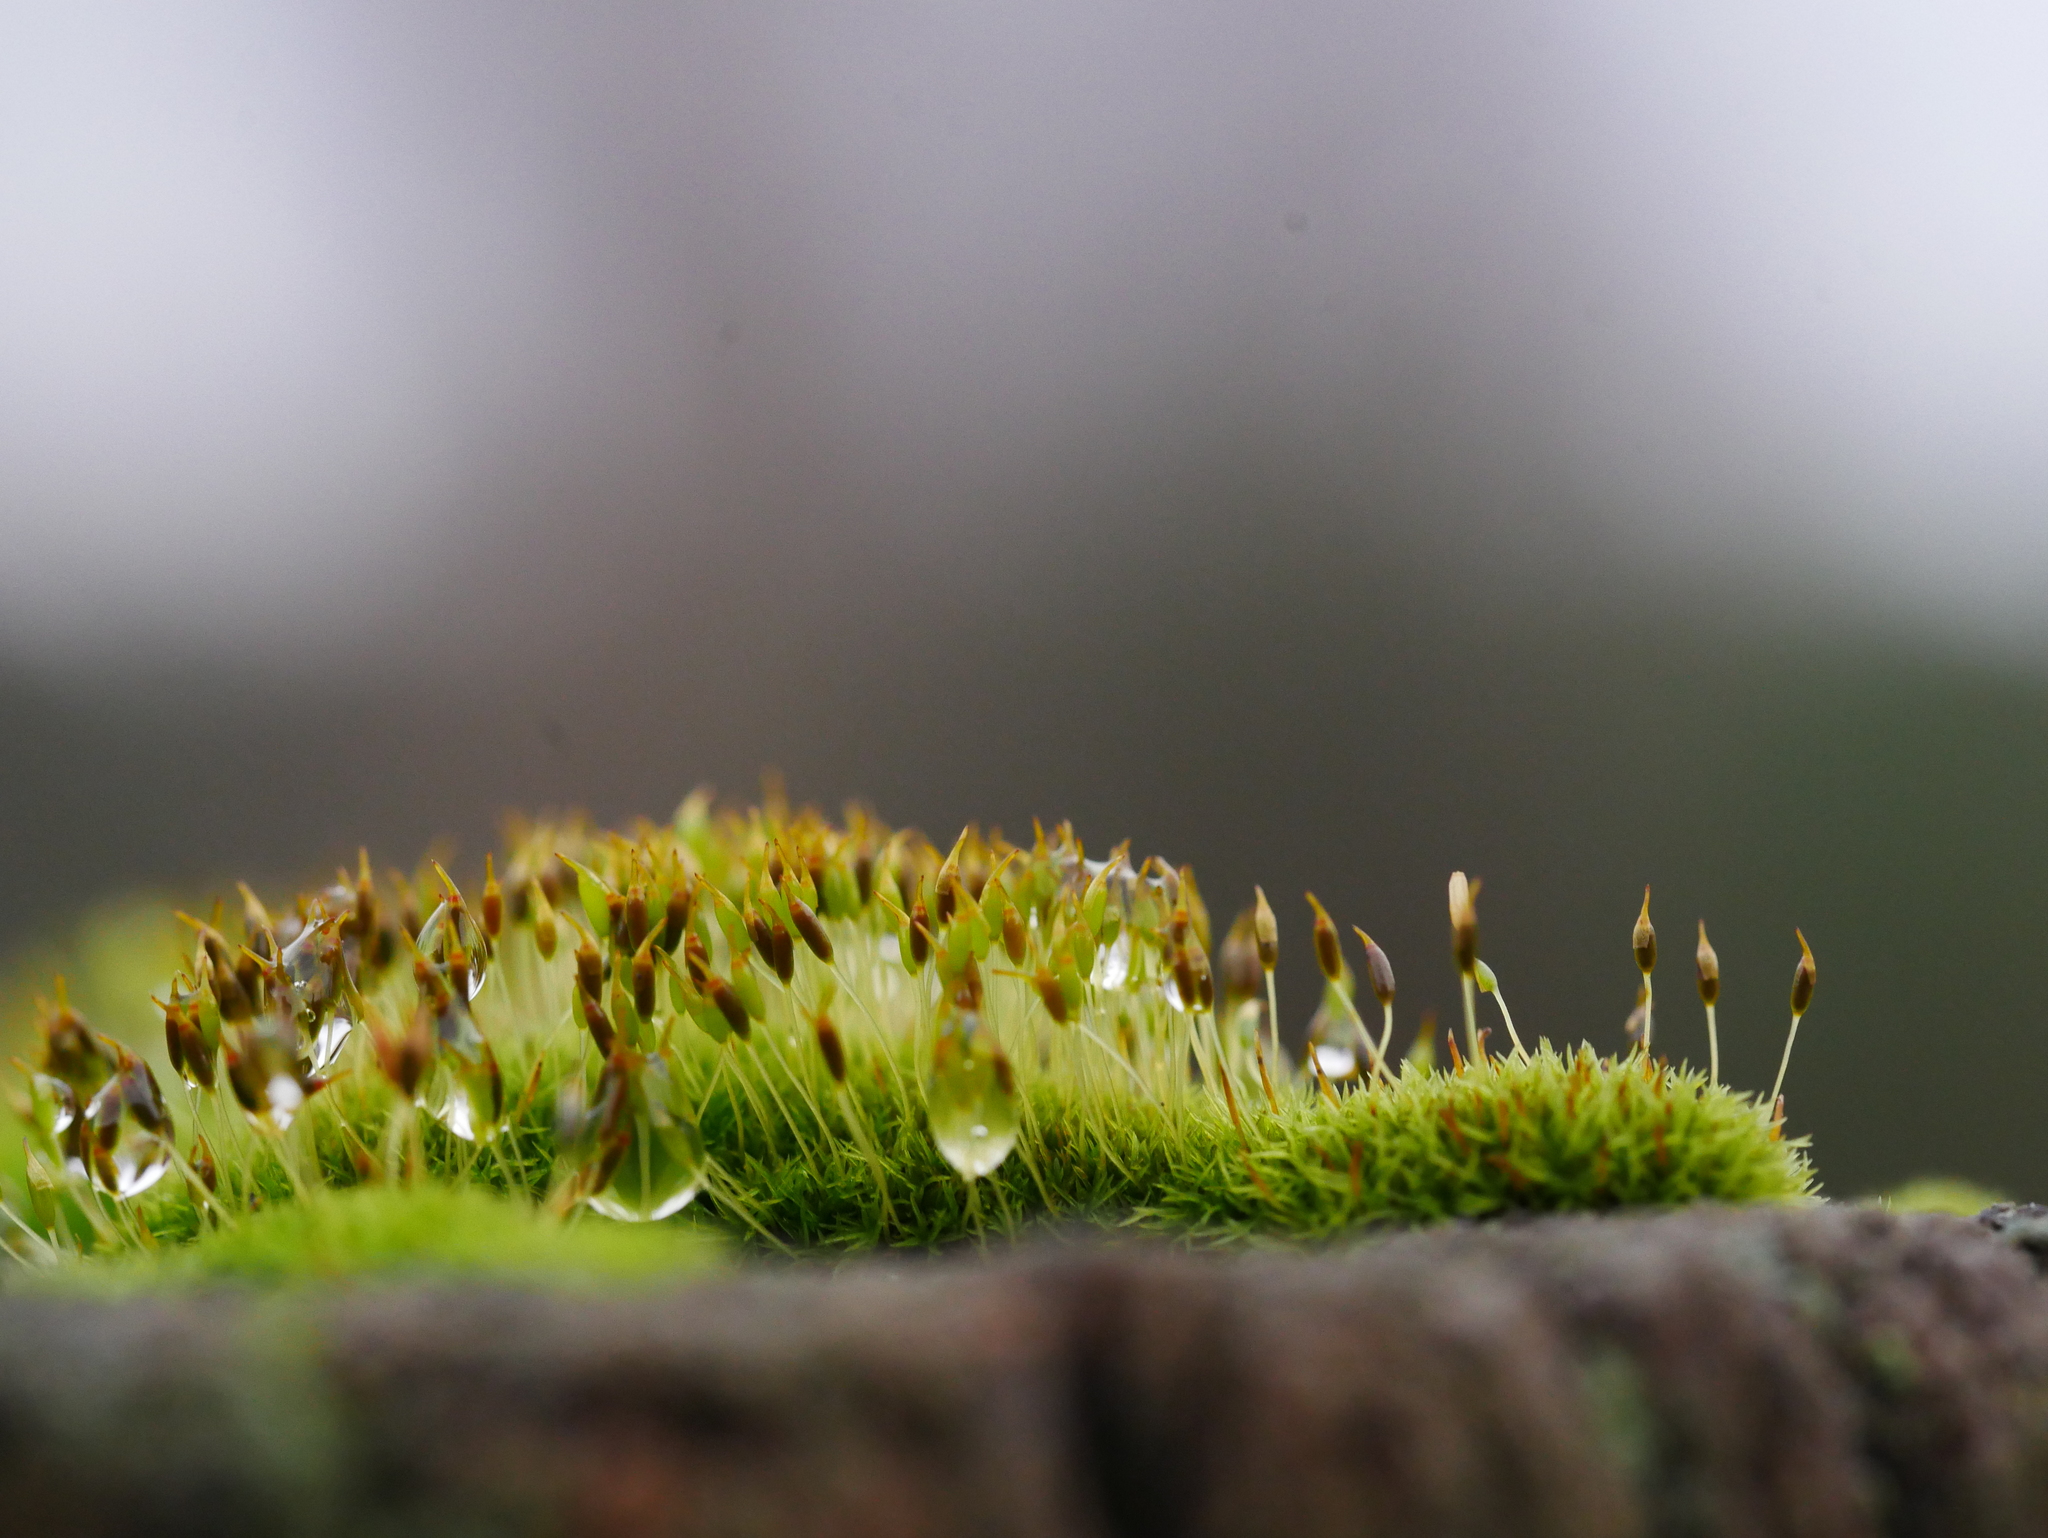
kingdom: Plantae
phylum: Bryophyta
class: Bryopsida
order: Dicranales
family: Rhabdoweisiaceae
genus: Dicranoweisia
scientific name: Dicranoweisia cirrata
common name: Common pincushion
